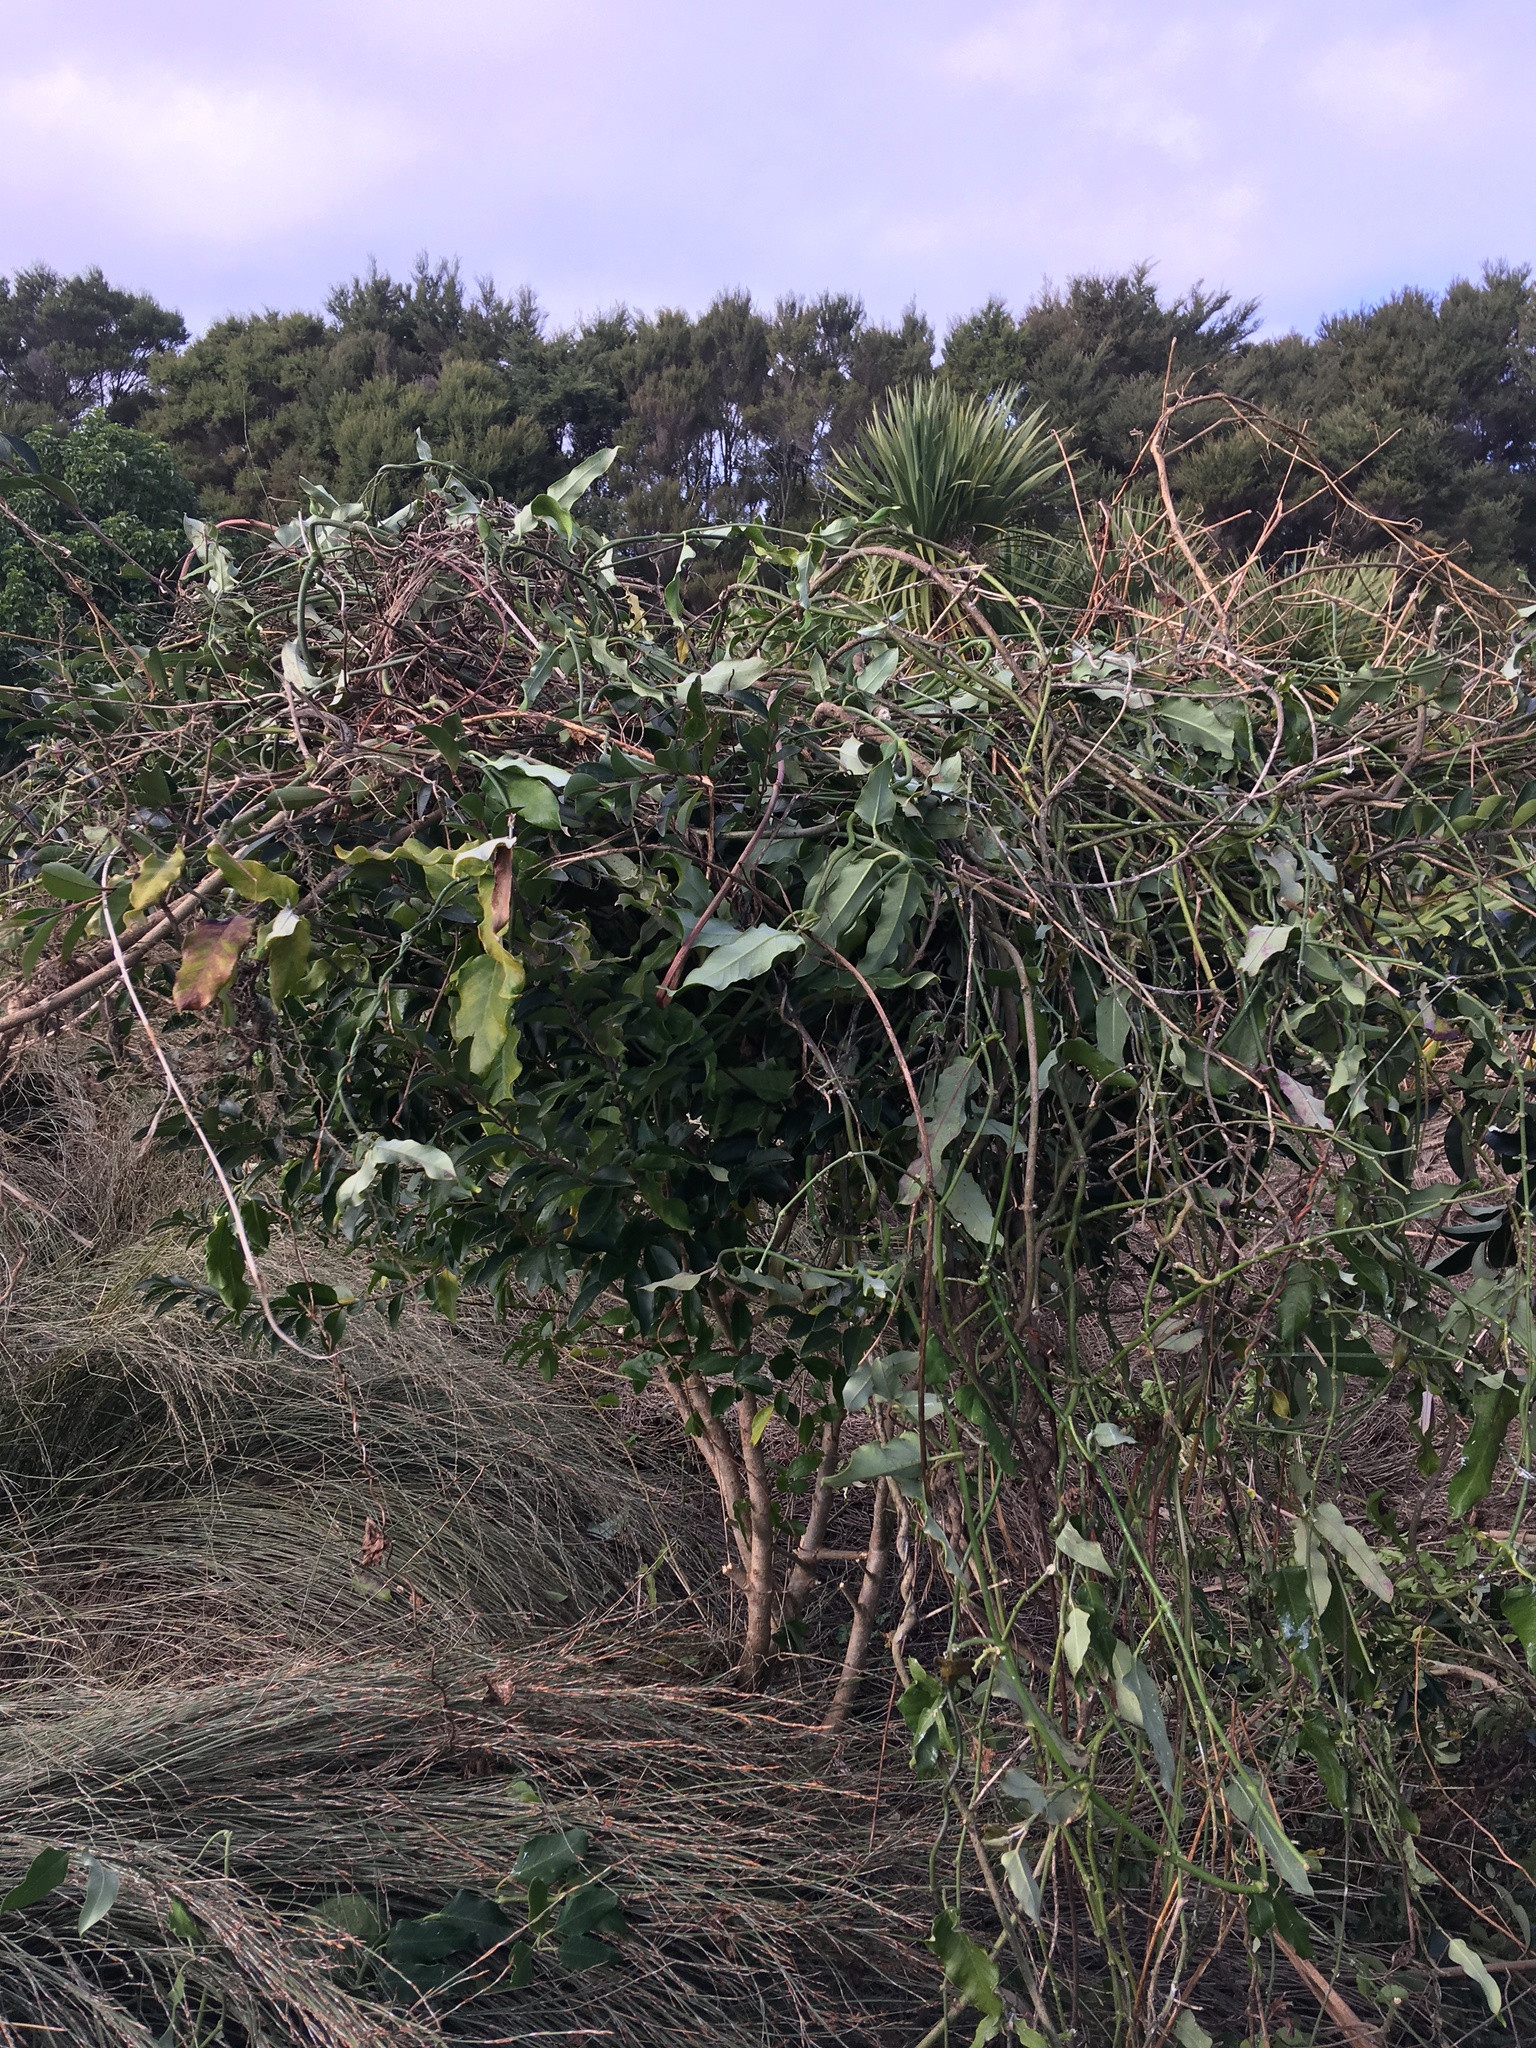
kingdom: Plantae
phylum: Tracheophyta
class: Magnoliopsida
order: Lamiales
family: Oleaceae
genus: Ligustrum
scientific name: Ligustrum sinense
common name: Chinese privet
